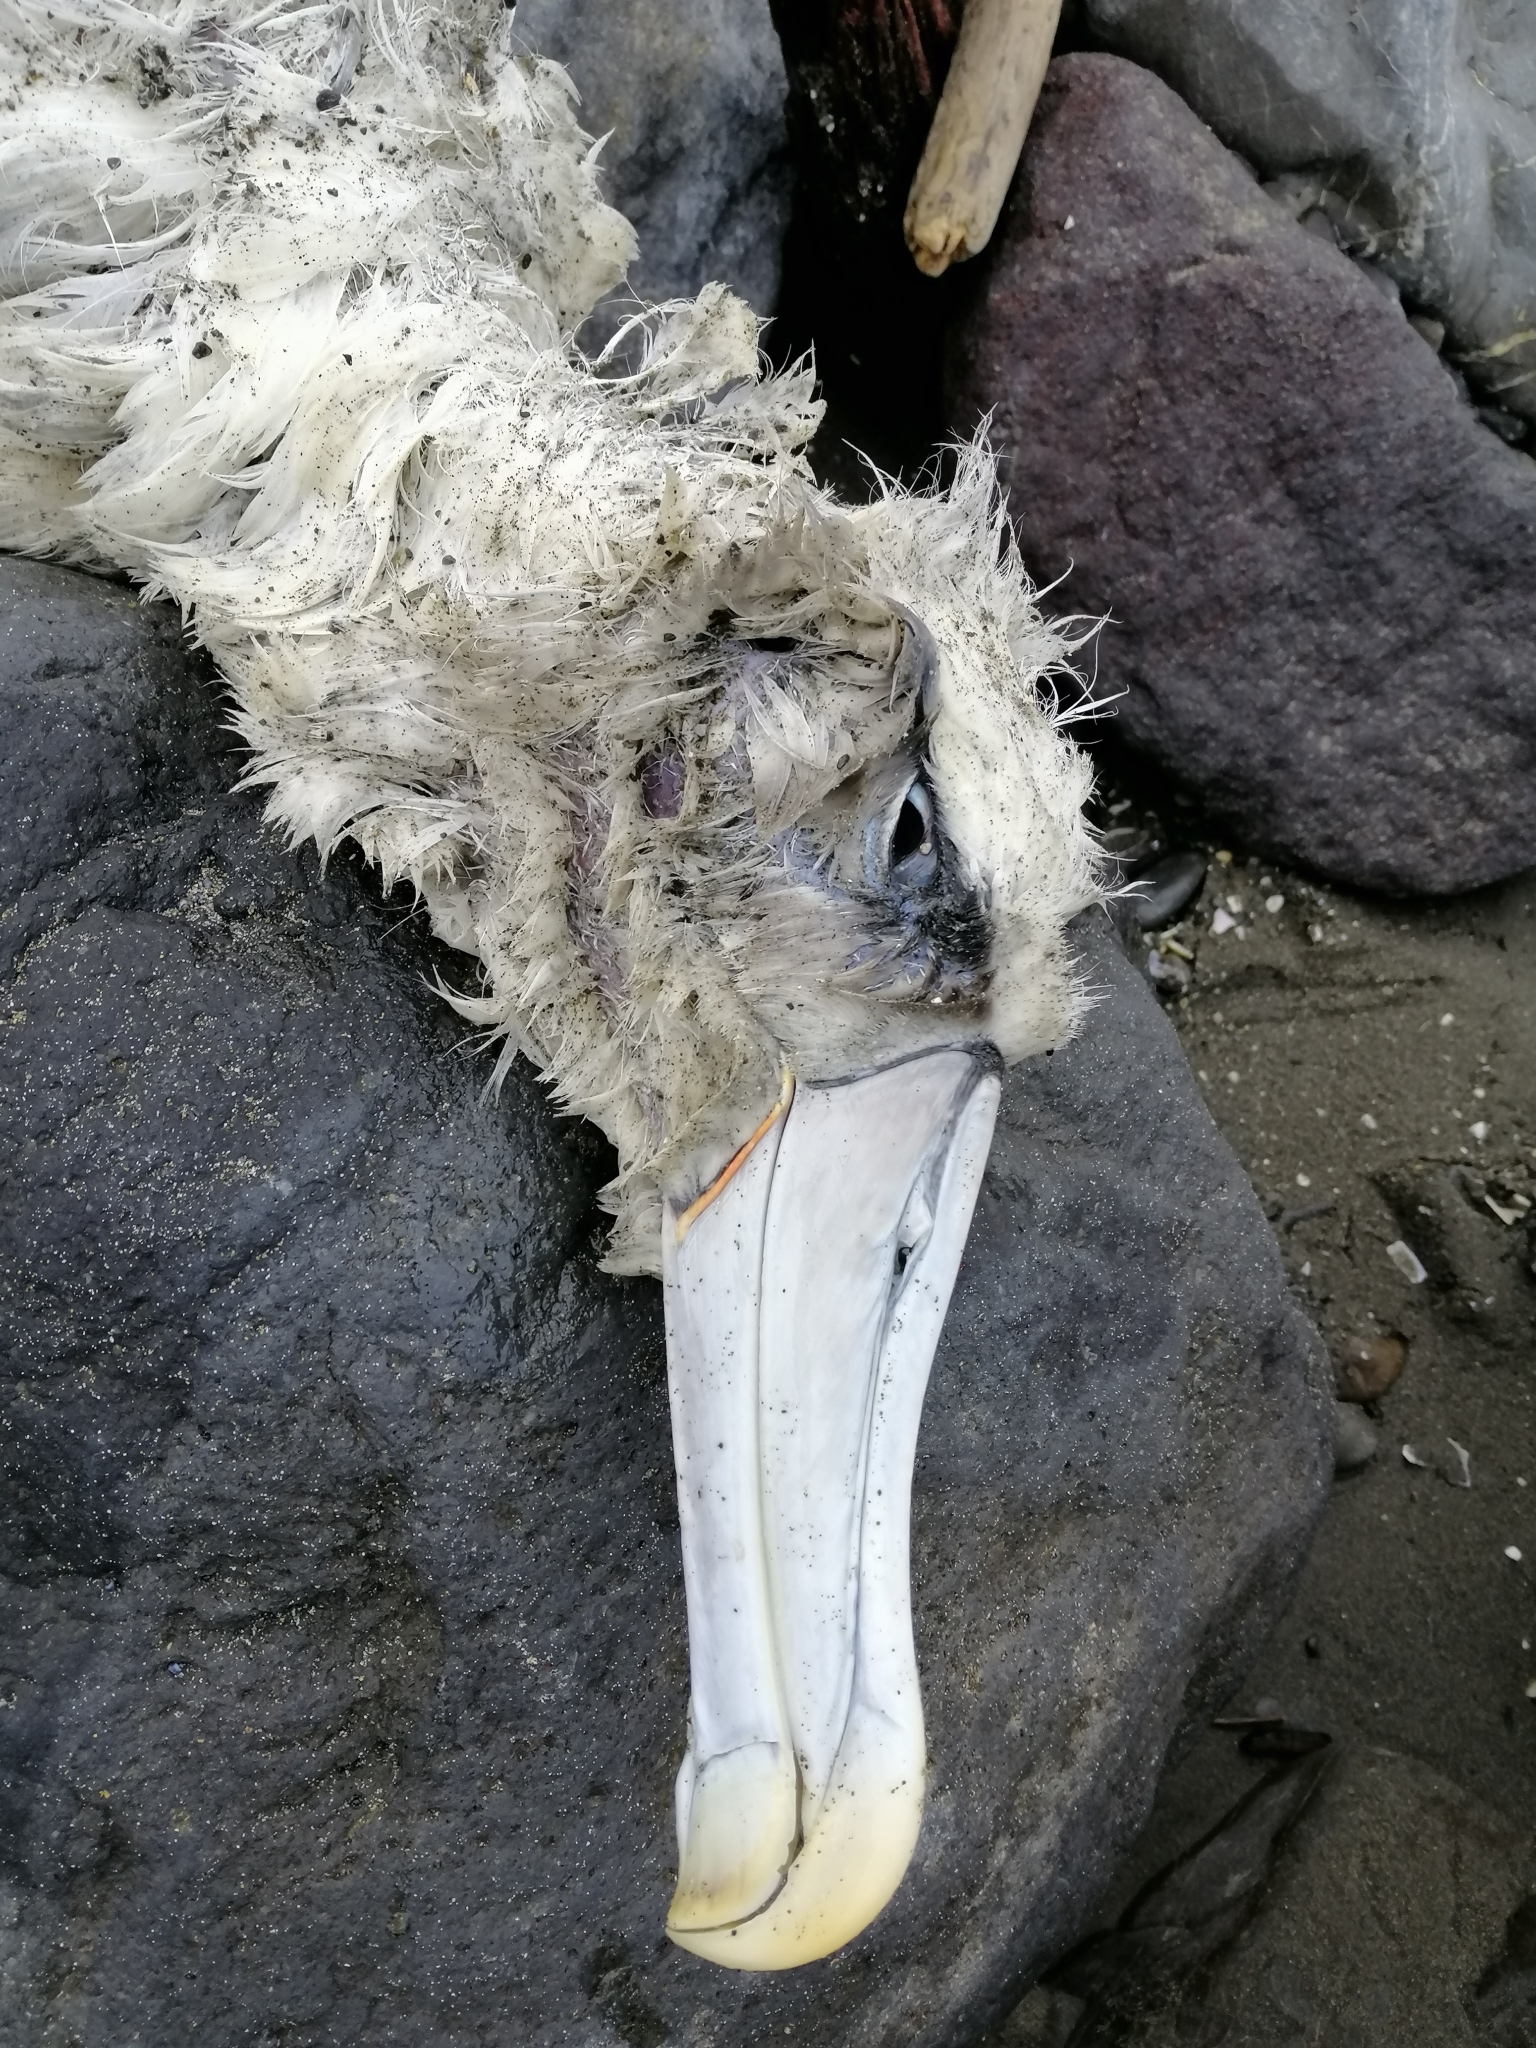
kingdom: Animalia
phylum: Chordata
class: Aves
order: Procellariiformes
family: Diomedeidae
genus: Thalassarche
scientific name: Thalassarche cauta
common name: Shy albatross
